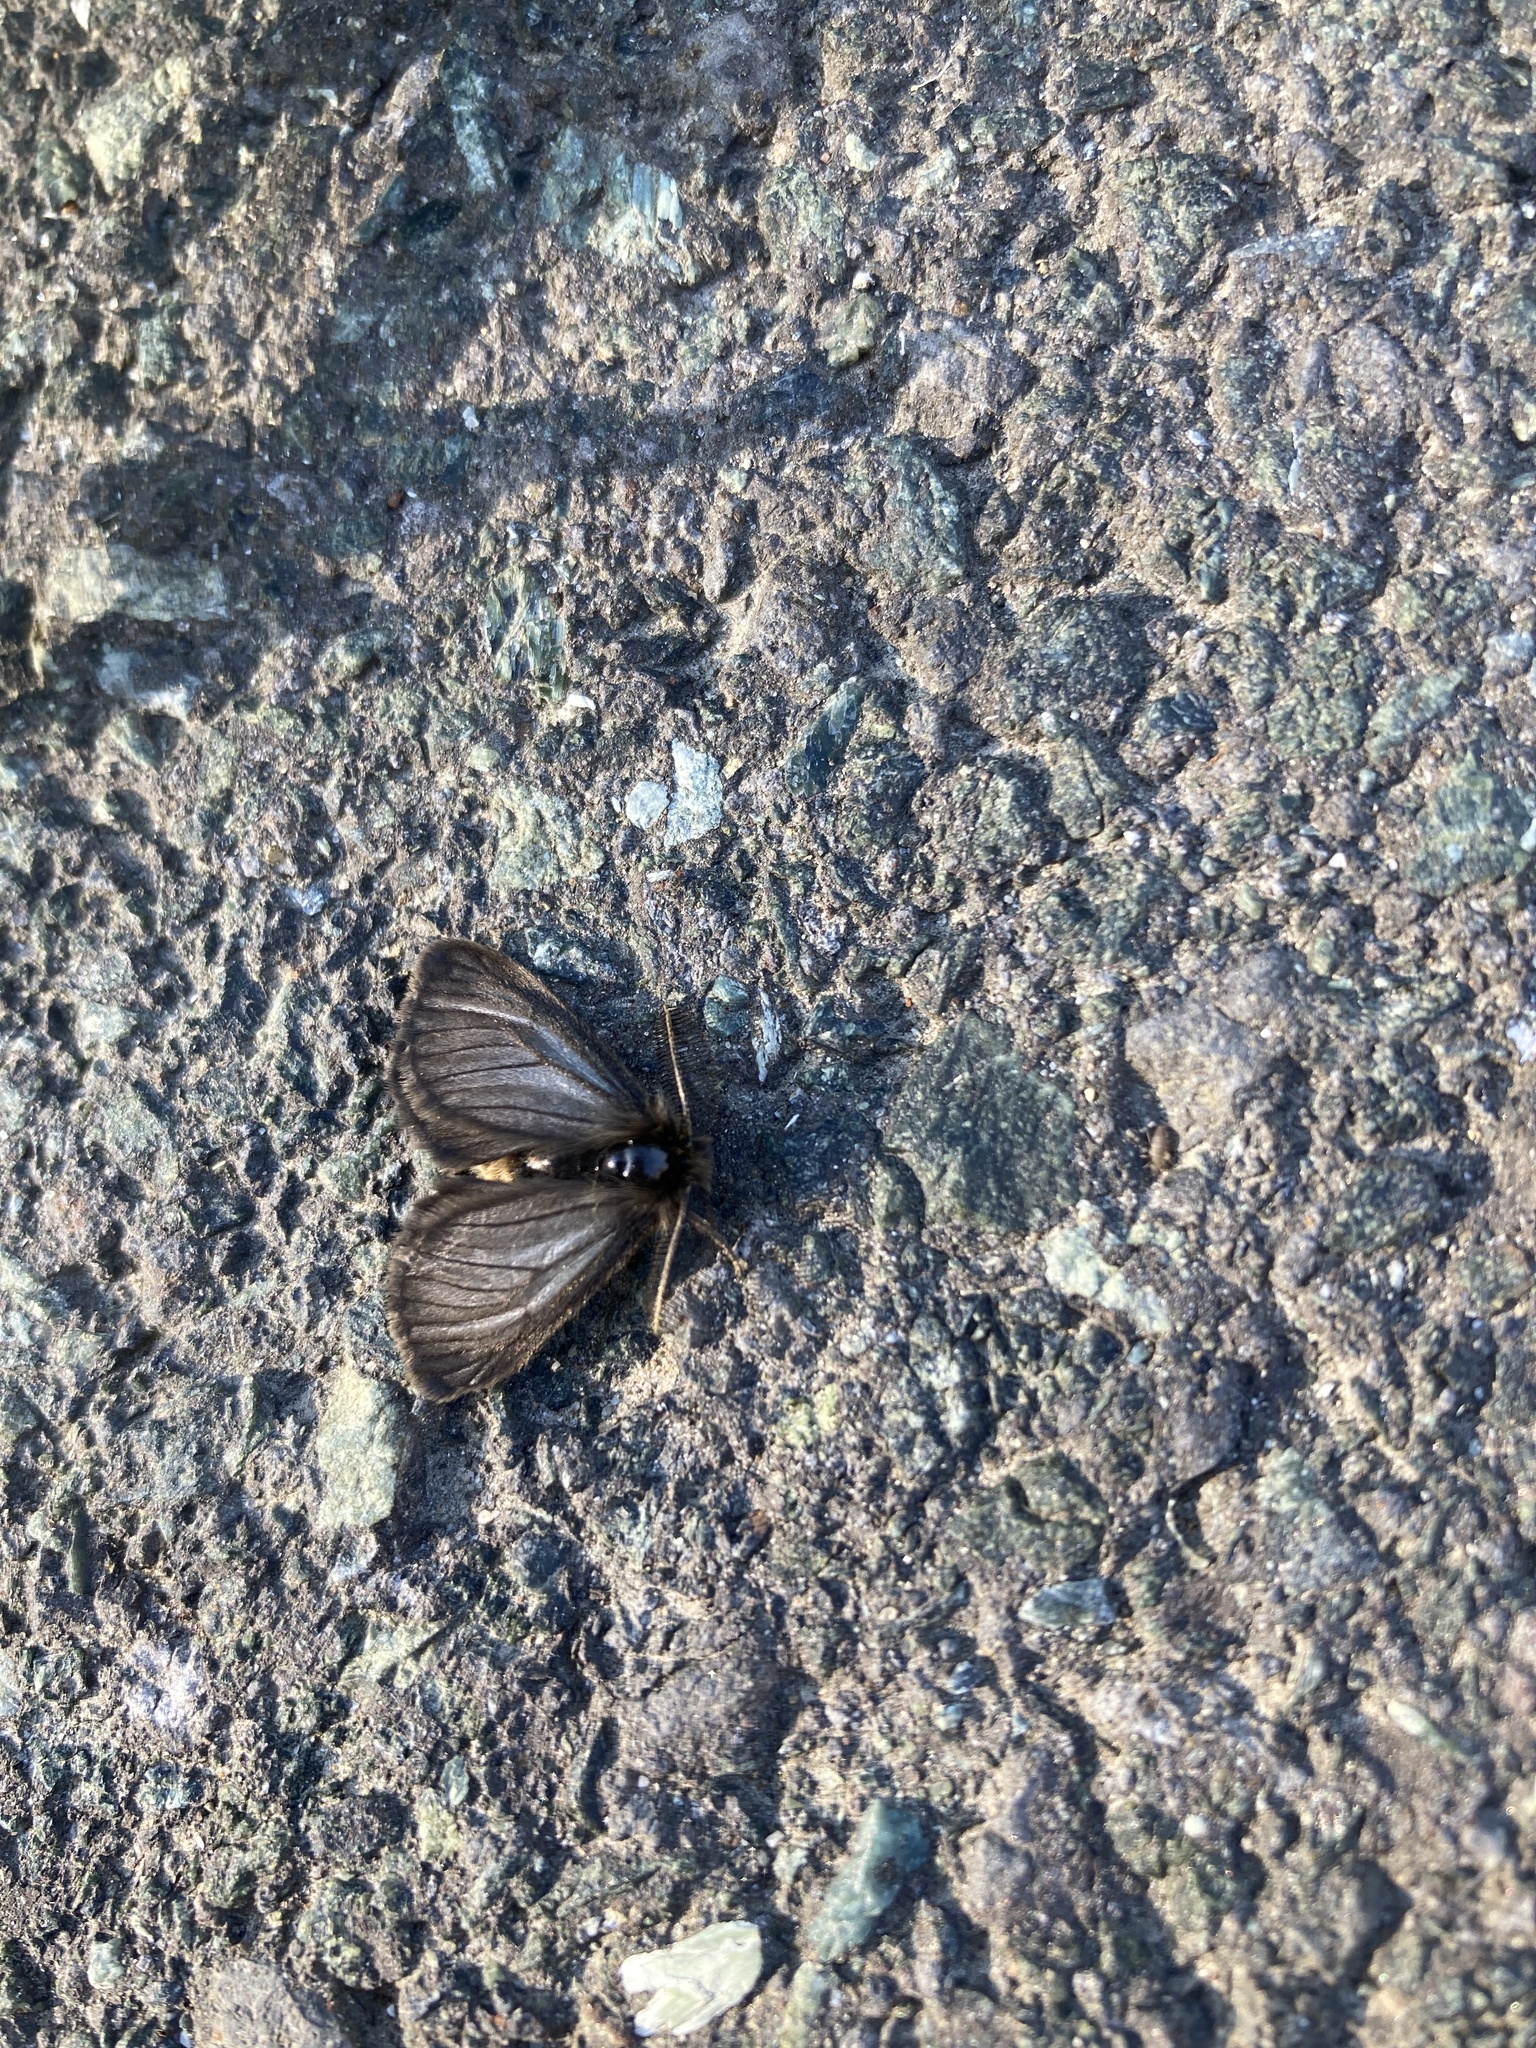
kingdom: Animalia
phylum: Arthropoda
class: Insecta
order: Lepidoptera
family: Erebidae
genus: Penthophera
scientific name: Penthophera morio
